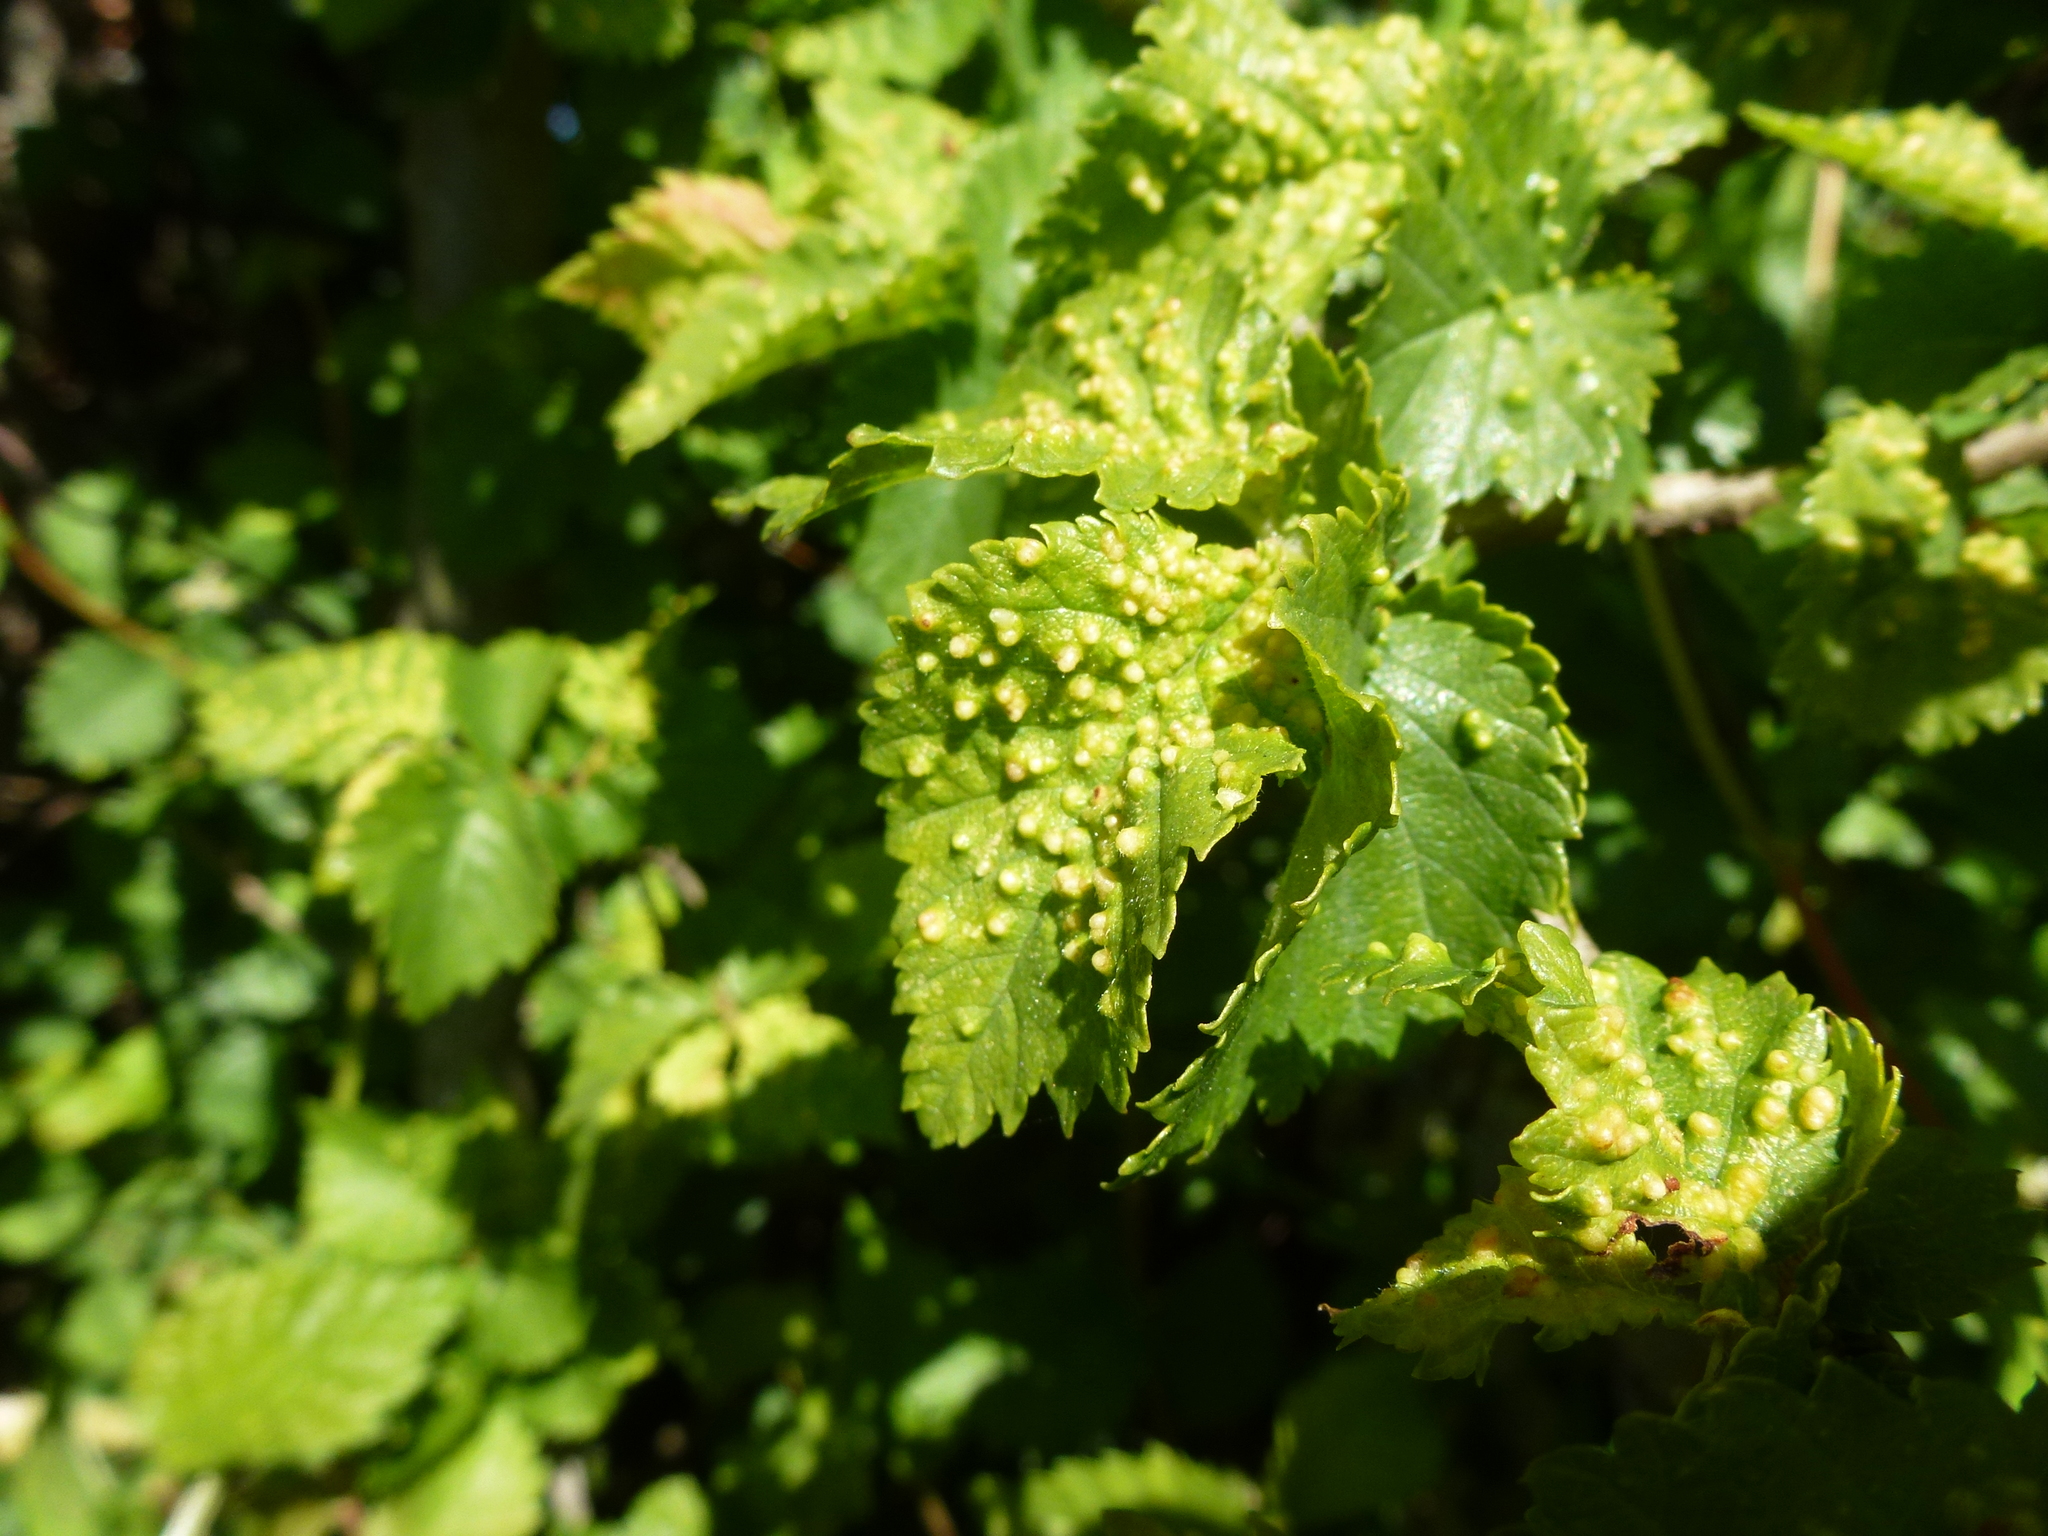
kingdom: Animalia
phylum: Arthropoda
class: Arachnida
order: Trombidiformes
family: Eriophyidae
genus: Aceria
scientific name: Aceria brevipunctata
